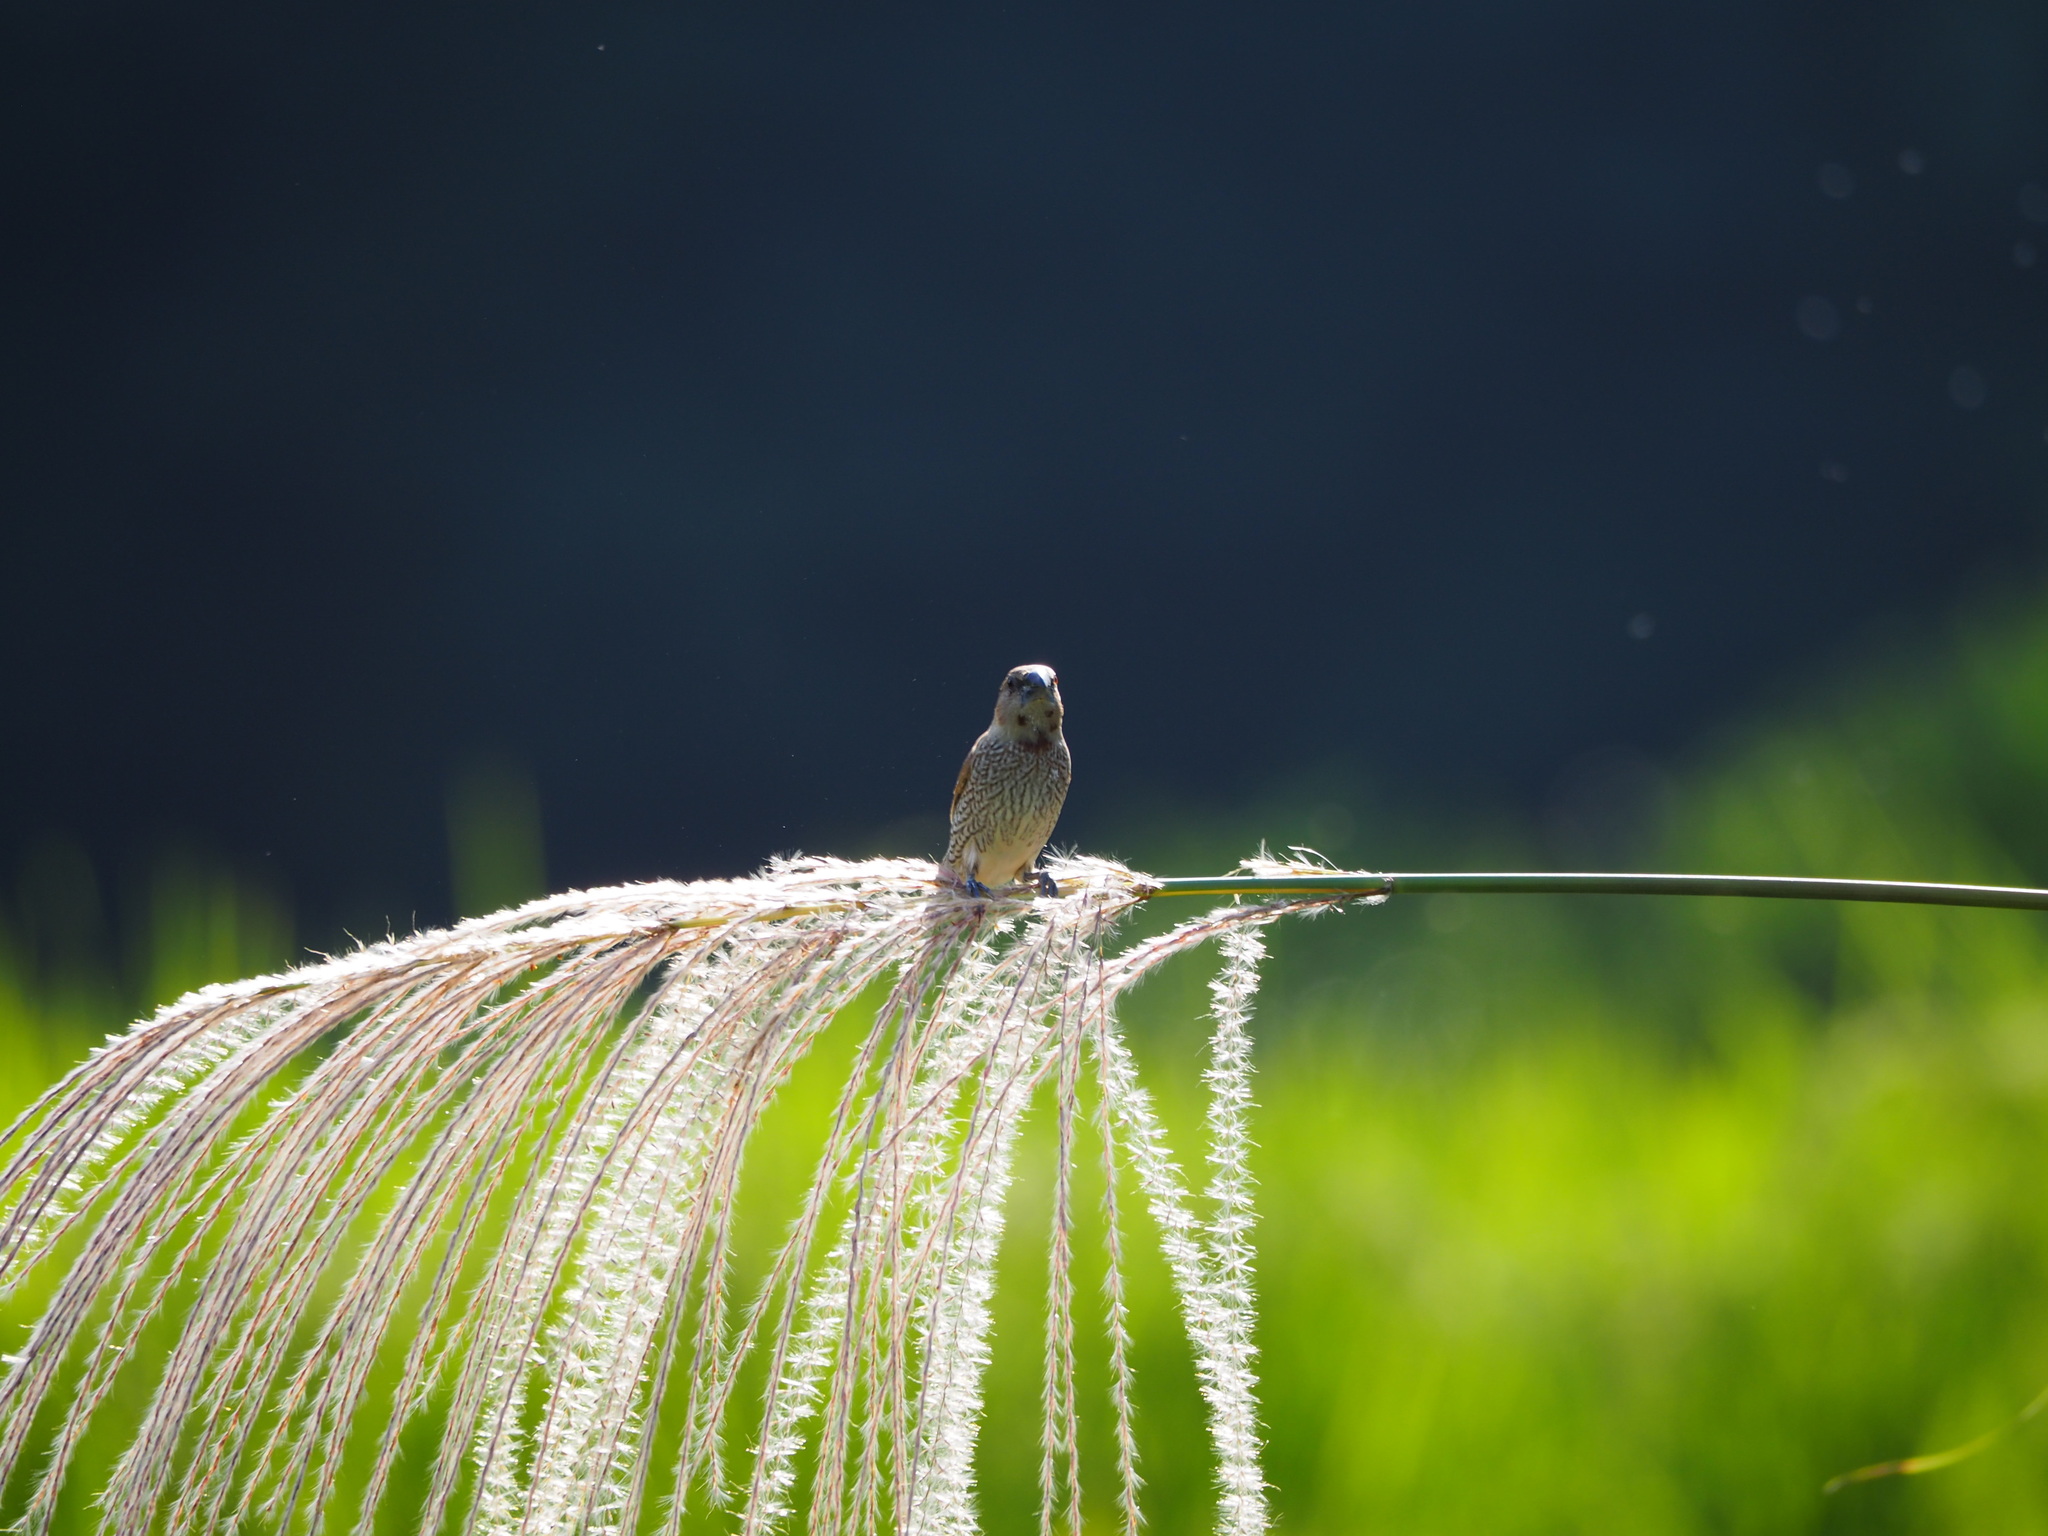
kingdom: Animalia
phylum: Chordata
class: Aves
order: Passeriformes
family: Estrildidae
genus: Lonchura
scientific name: Lonchura punctulata
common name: Scaly-breasted munia
